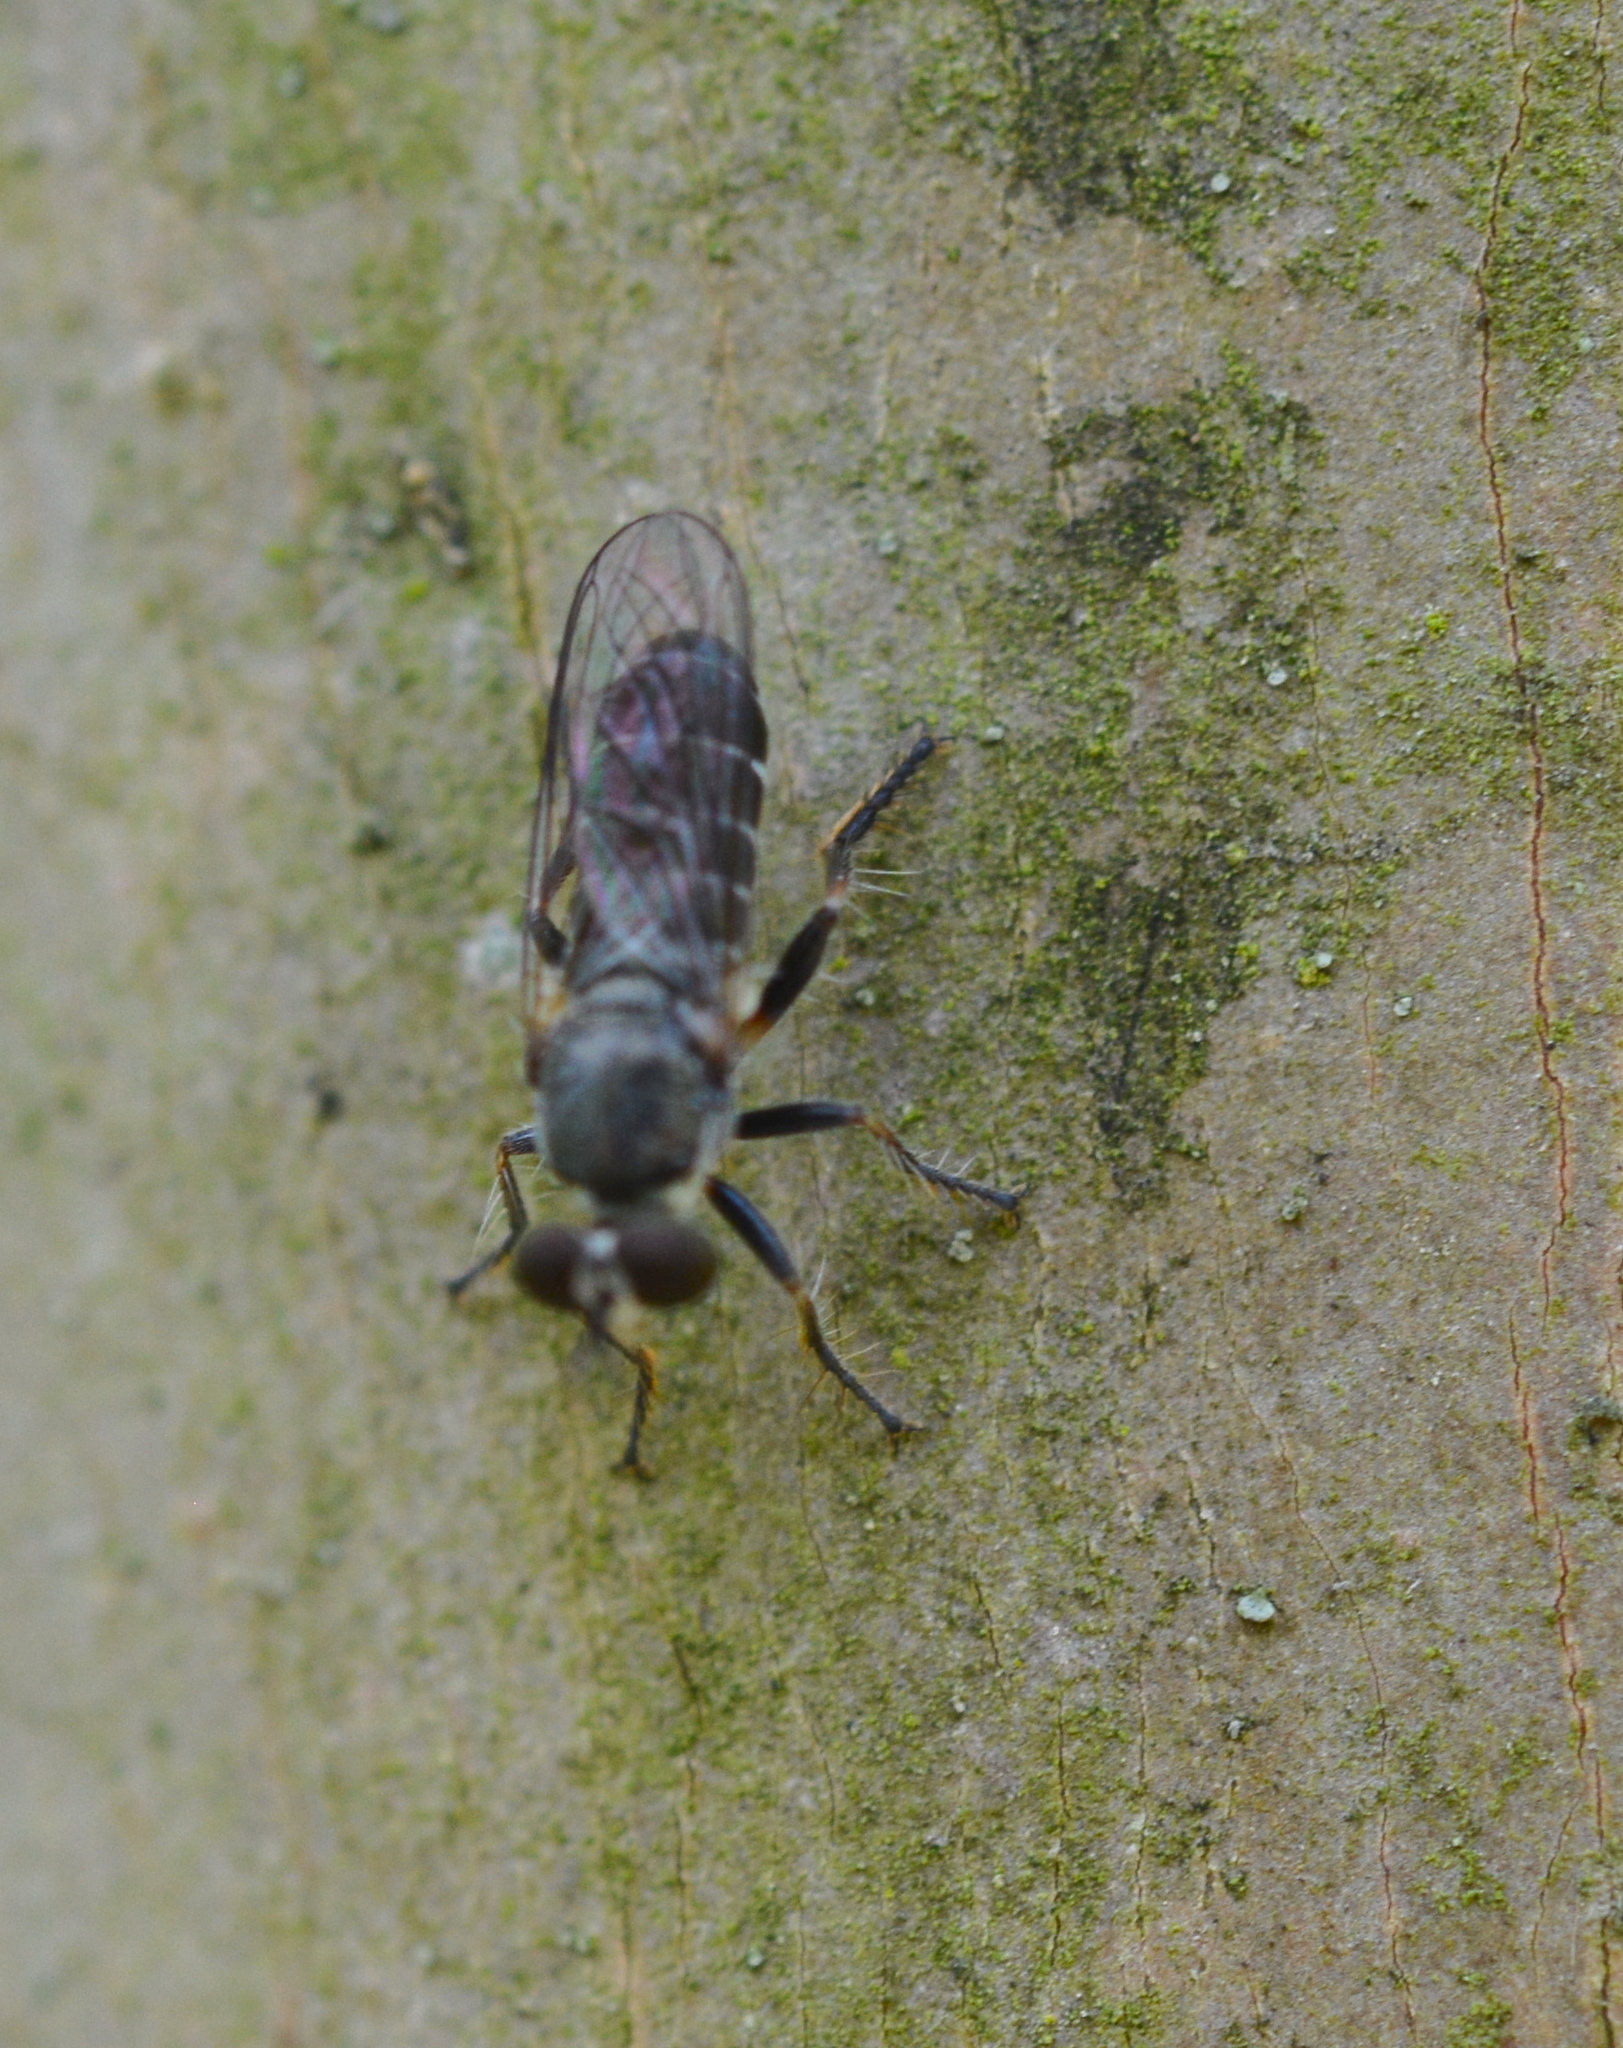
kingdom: Animalia
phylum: Arthropoda
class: Insecta
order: Diptera
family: Asilidae
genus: Atomosia
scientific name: Atomosia
